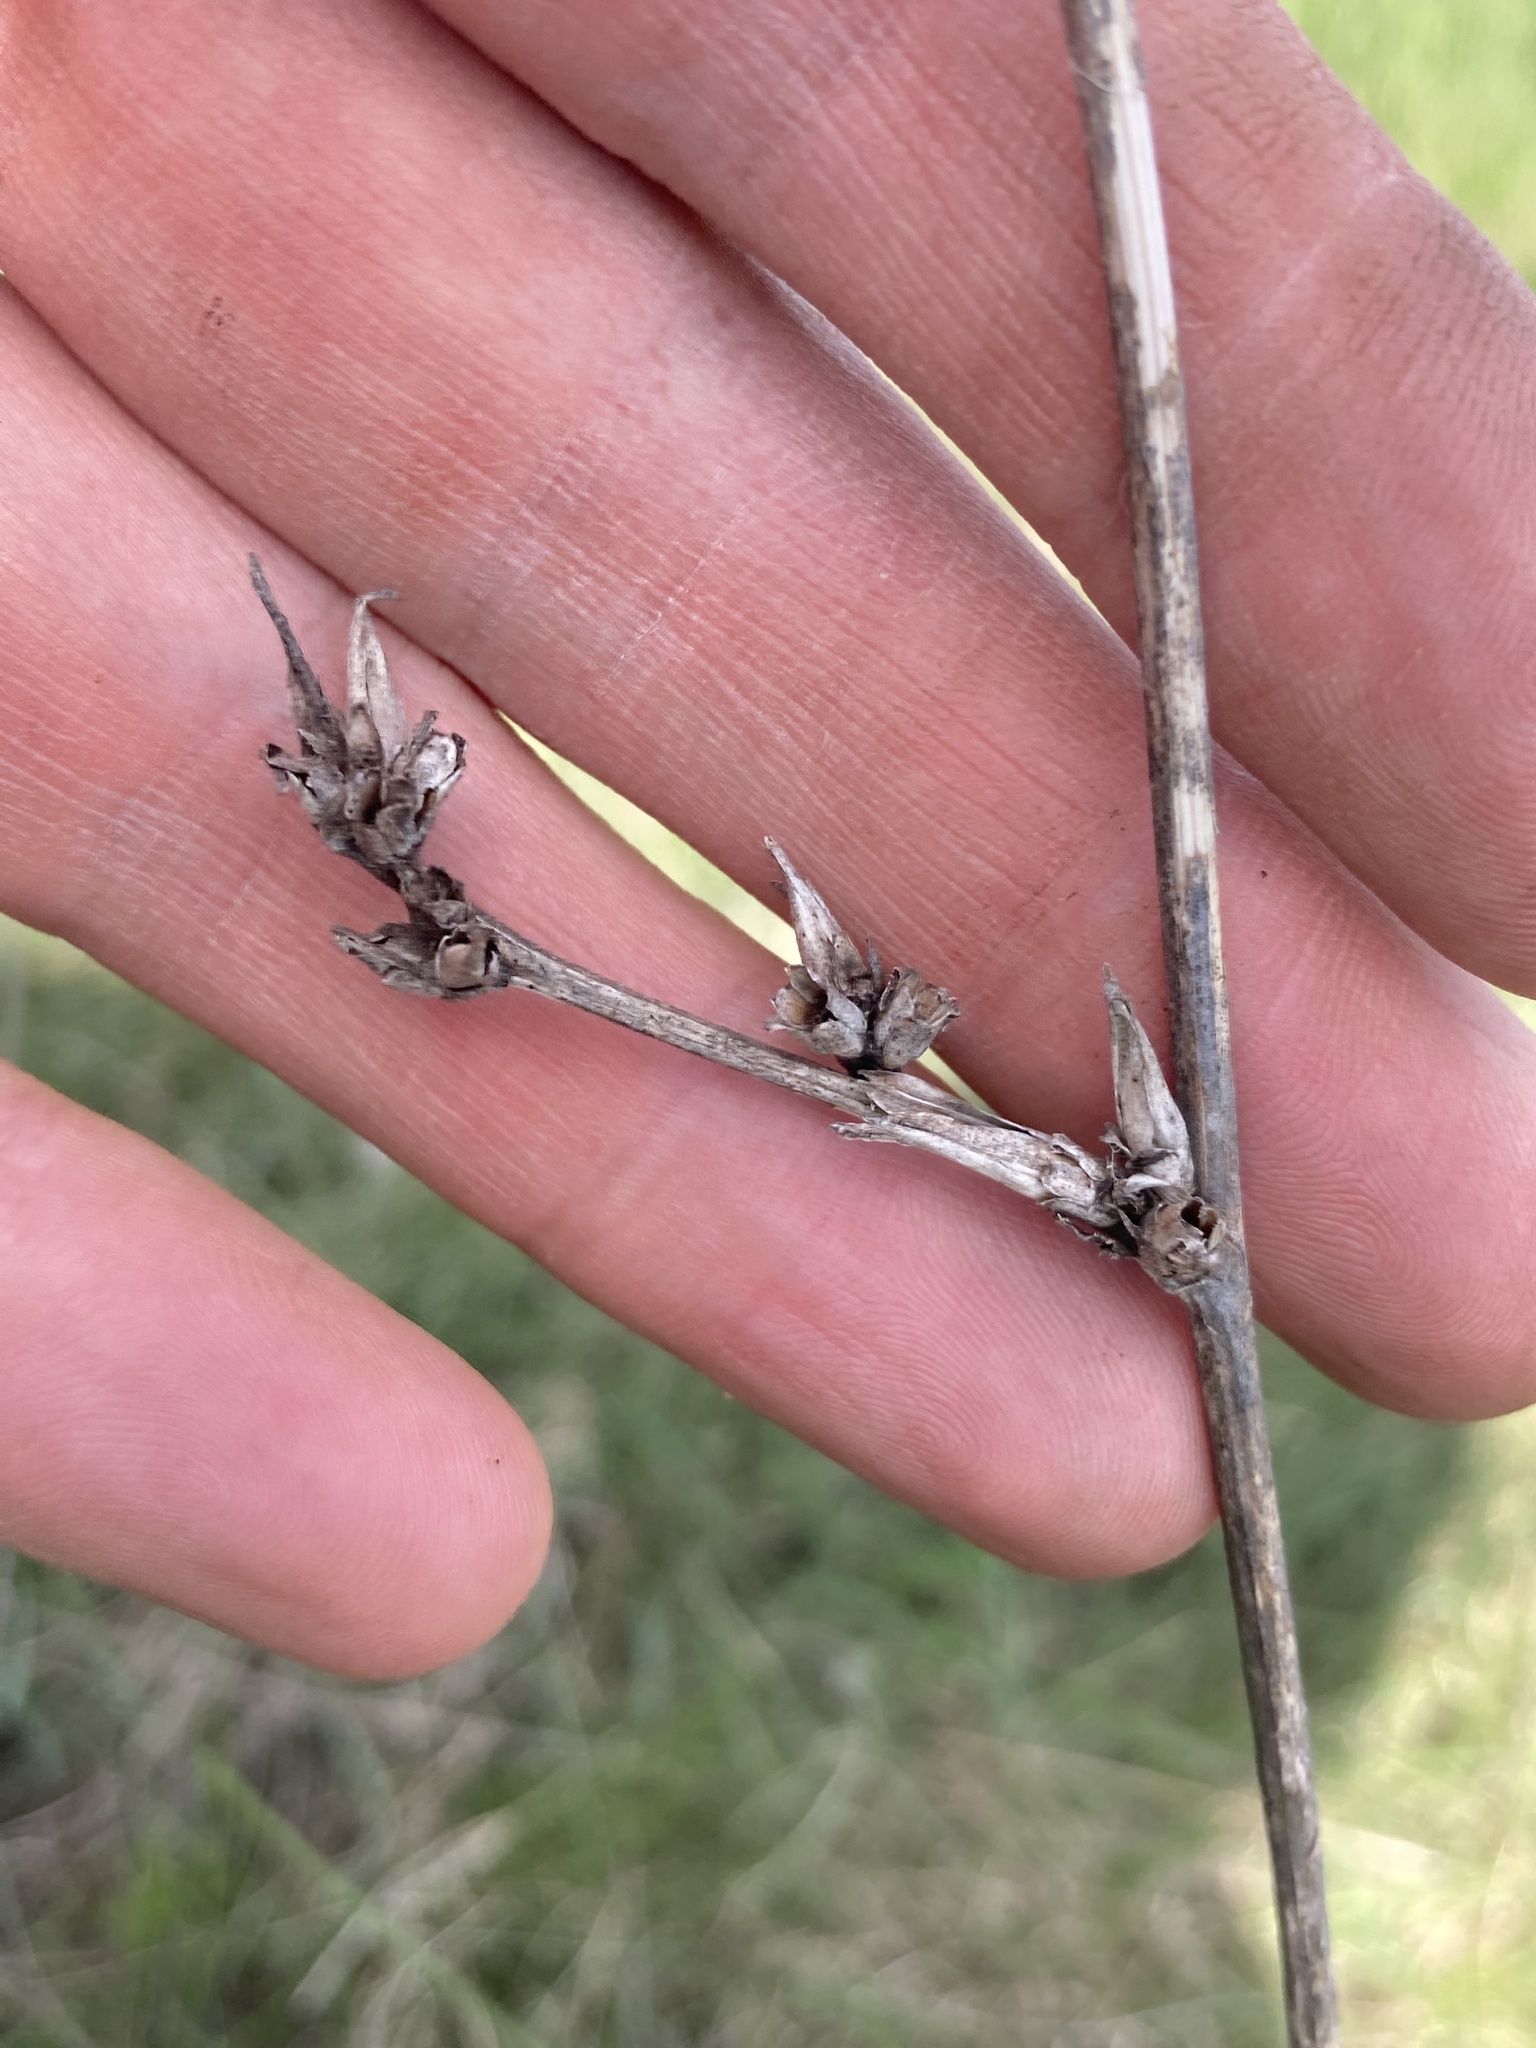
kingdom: Plantae
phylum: Tracheophyta
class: Magnoliopsida
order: Asterales
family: Asteraceae
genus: Cichorium
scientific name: Cichorium intybus
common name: Chicory
